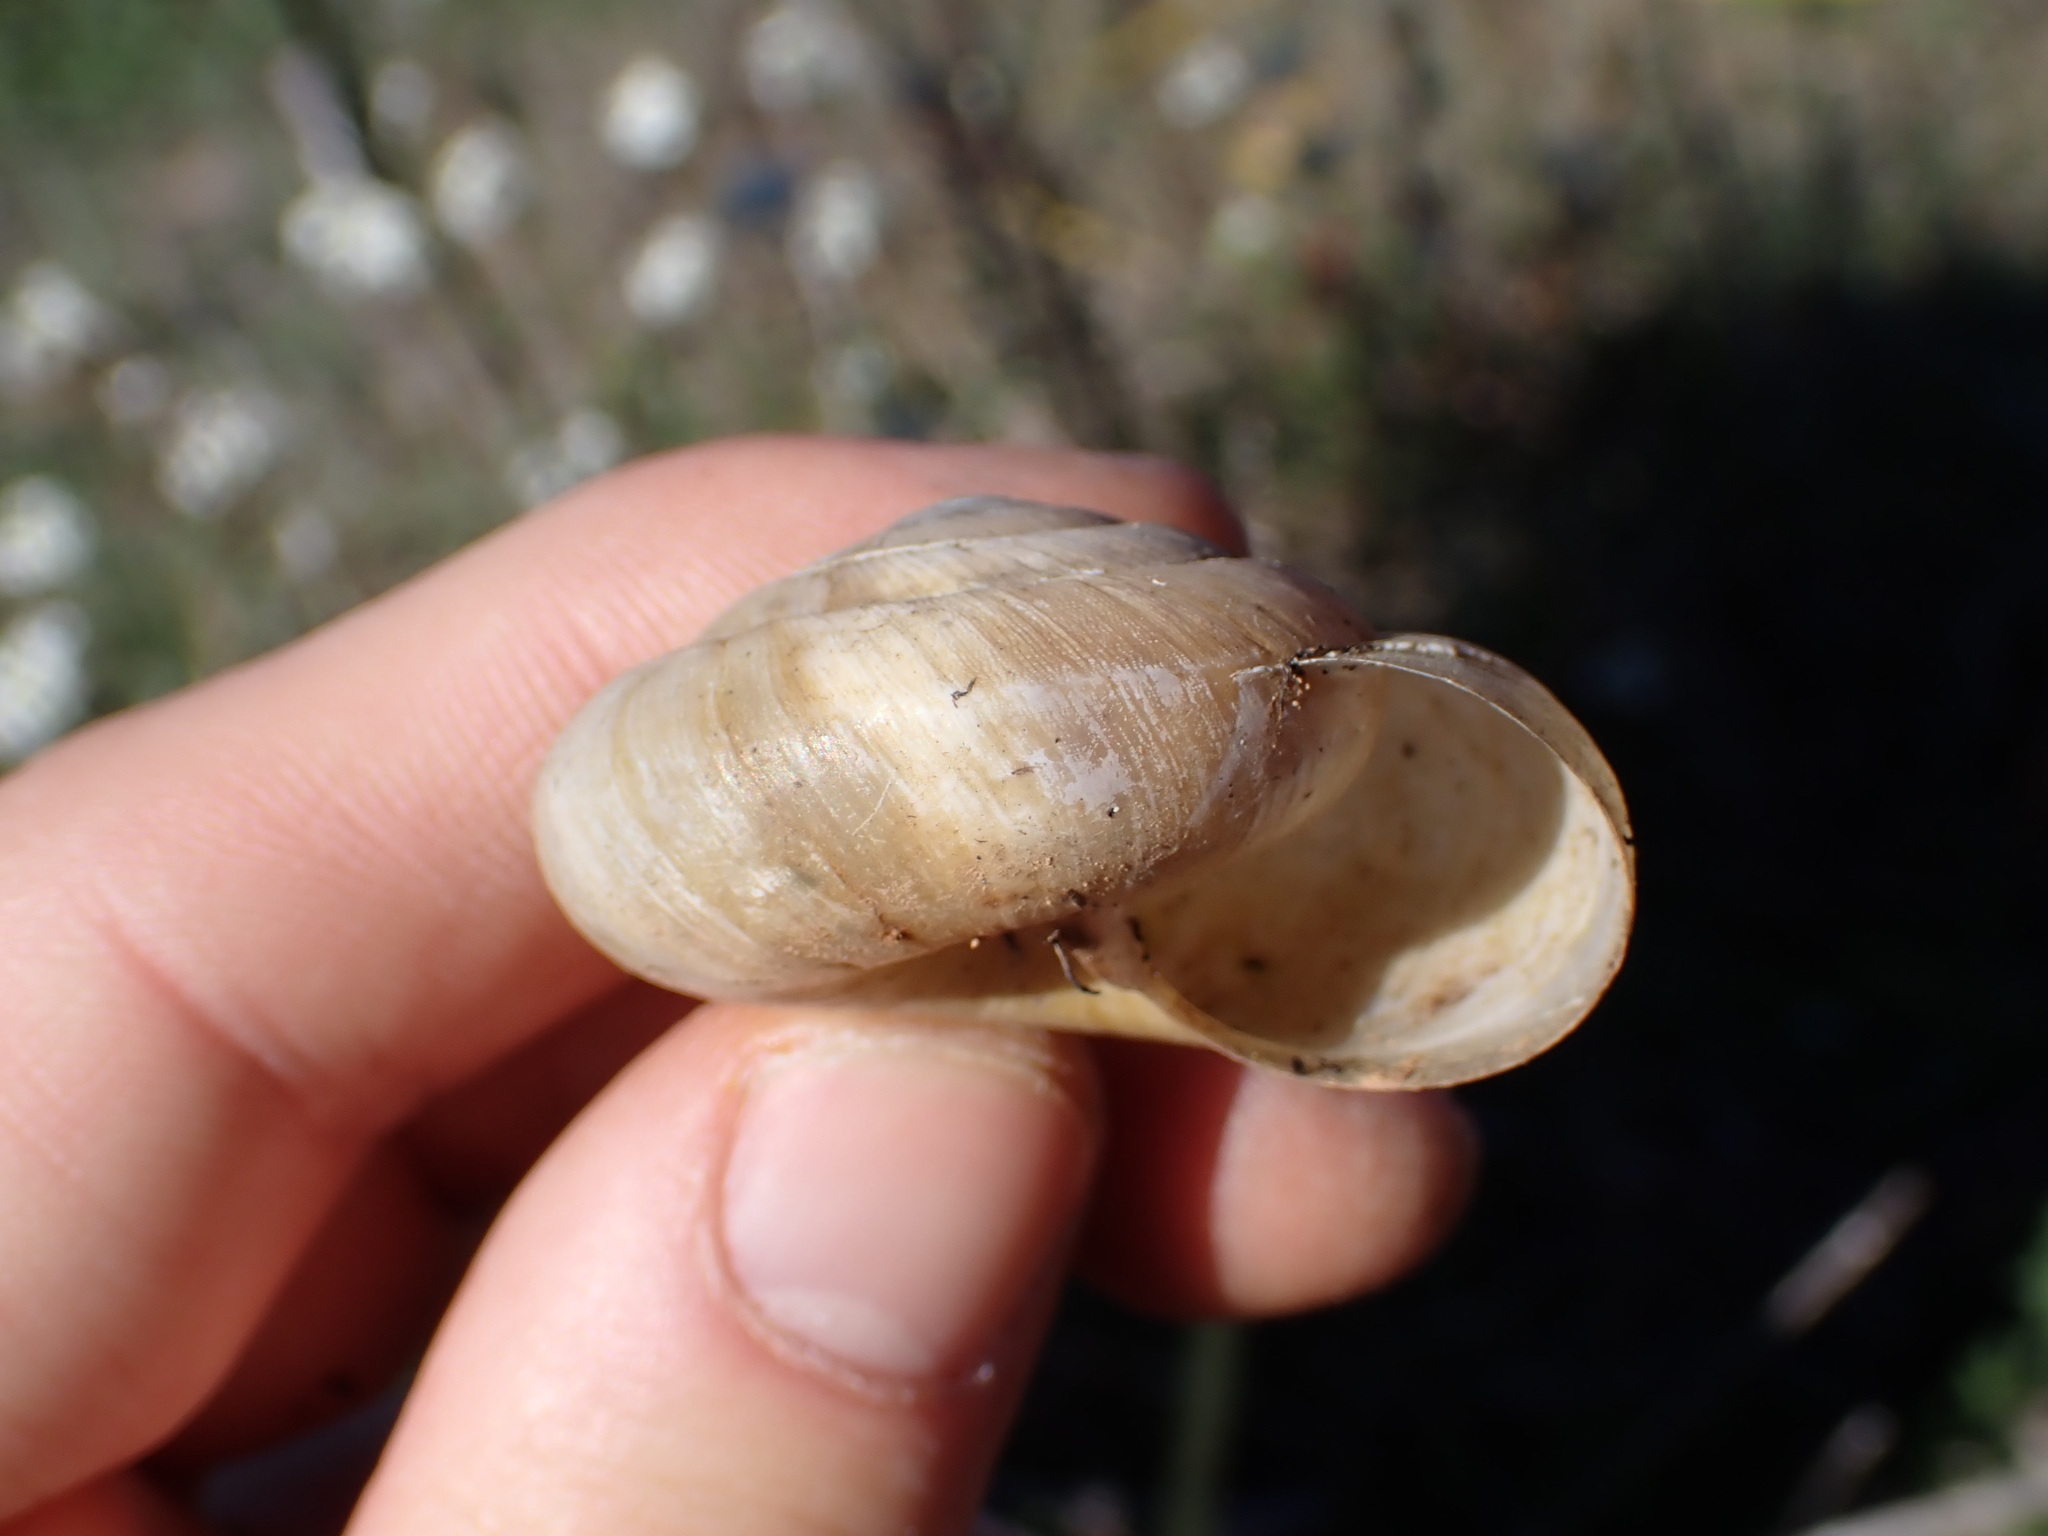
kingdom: Animalia
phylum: Mollusca
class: Gastropoda
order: Stylommatophora
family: Zonitidae
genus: Zonites
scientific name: Zonites algirus
